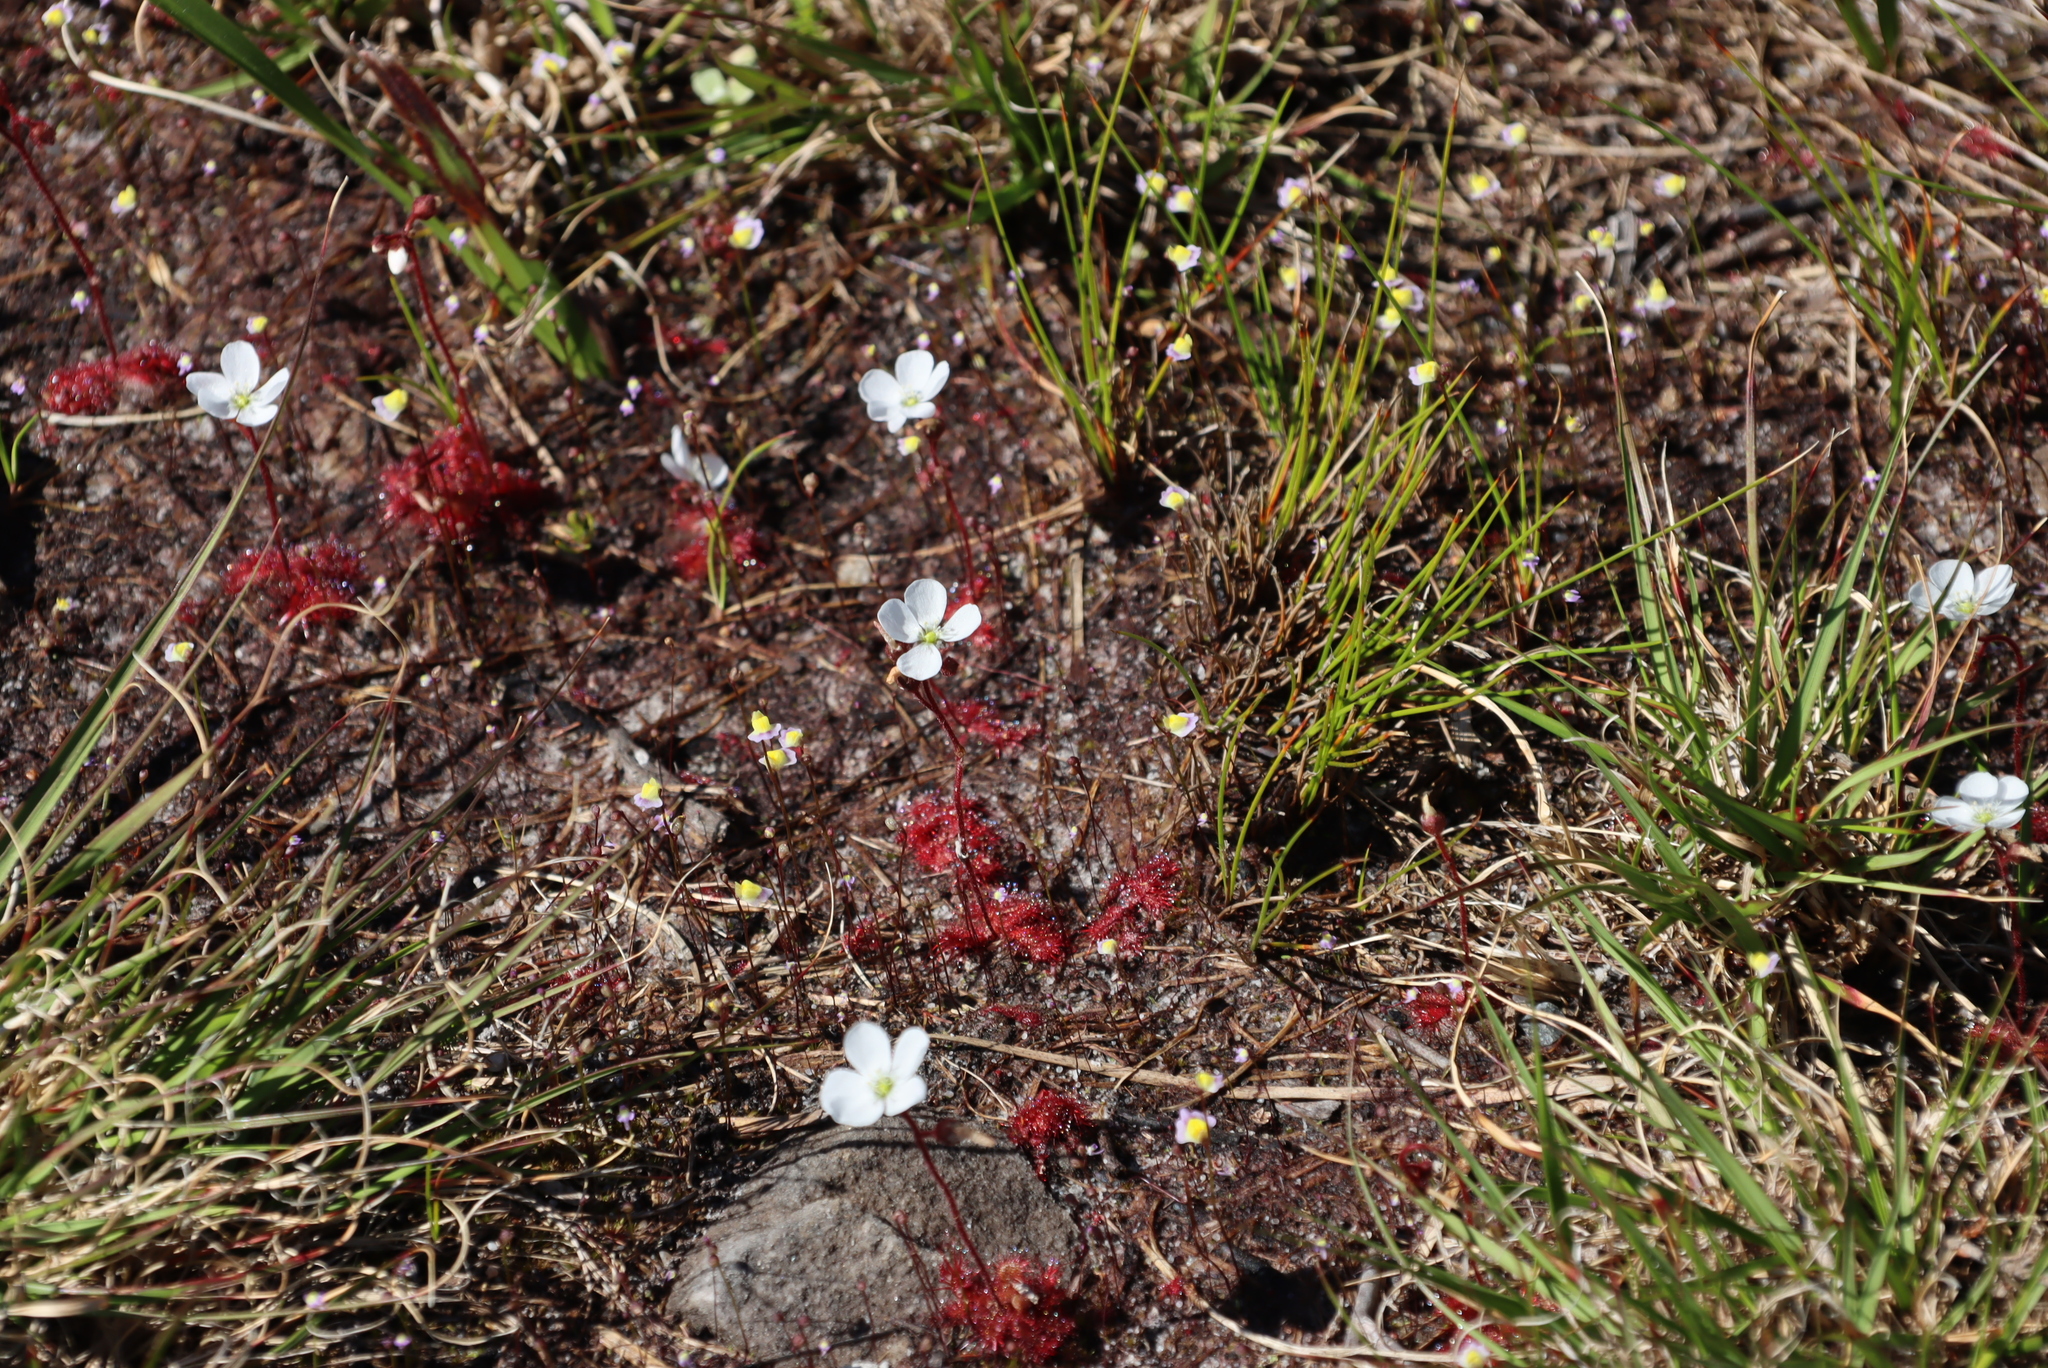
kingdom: Plantae
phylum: Tracheophyta
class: Magnoliopsida
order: Lamiales
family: Lentibulariaceae
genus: Utricularia
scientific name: Utricularia bisquamata
